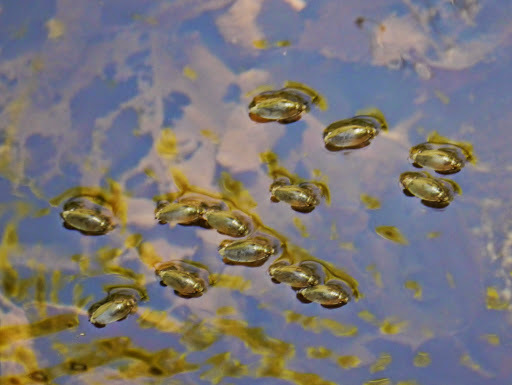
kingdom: Animalia
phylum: Arthropoda
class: Insecta
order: Coleoptera
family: Gyrinidae
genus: Dineutus
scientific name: Dineutus
